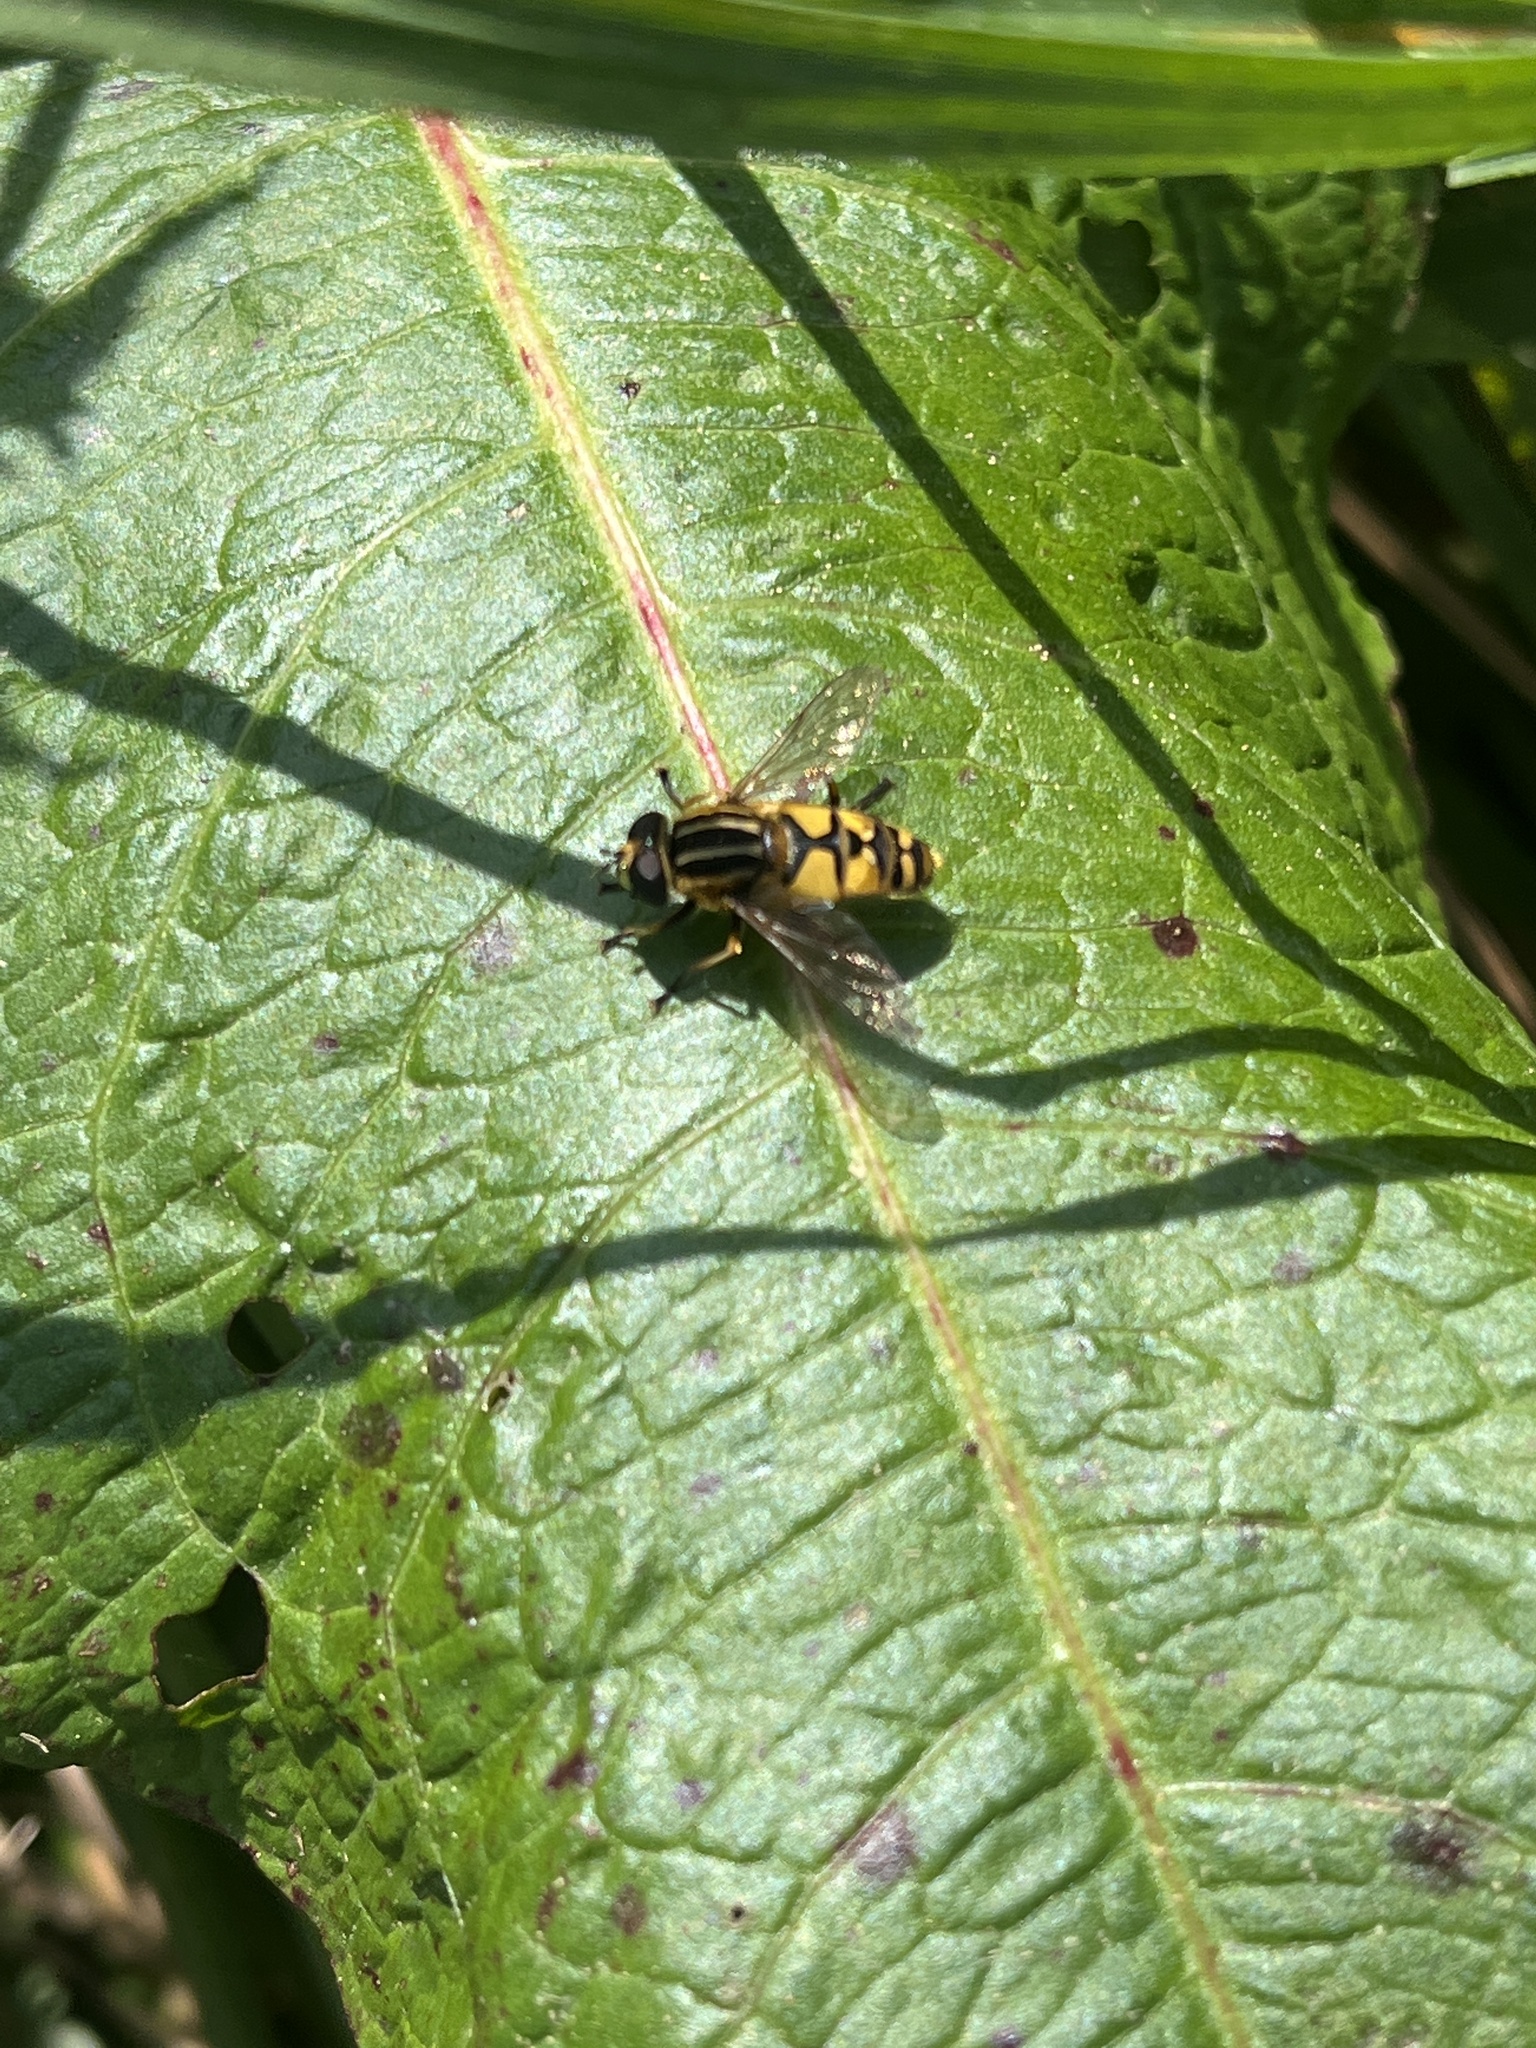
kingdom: Animalia
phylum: Arthropoda
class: Insecta
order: Diptera
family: Syrphidae
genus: Helophilus
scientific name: Helophilus pendulus
